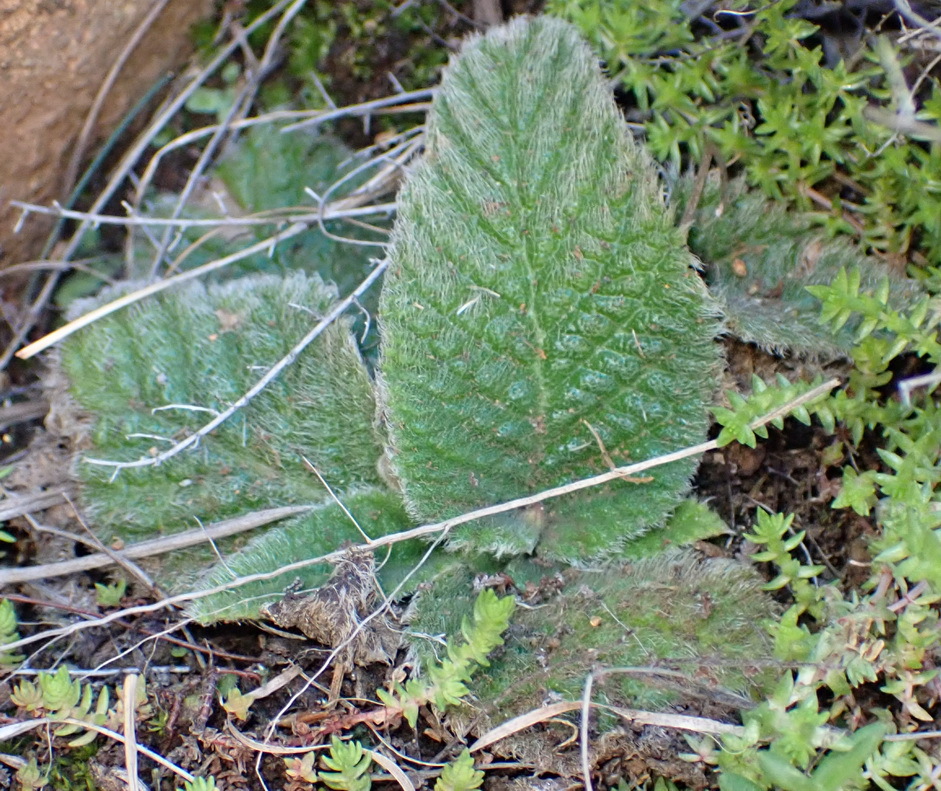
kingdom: Plantae
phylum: Tracheophyta
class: Magnoliopsida
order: Lamiales
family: Gesneriaceae
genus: Streptocarpus
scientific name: Streptocarpus meyeri
